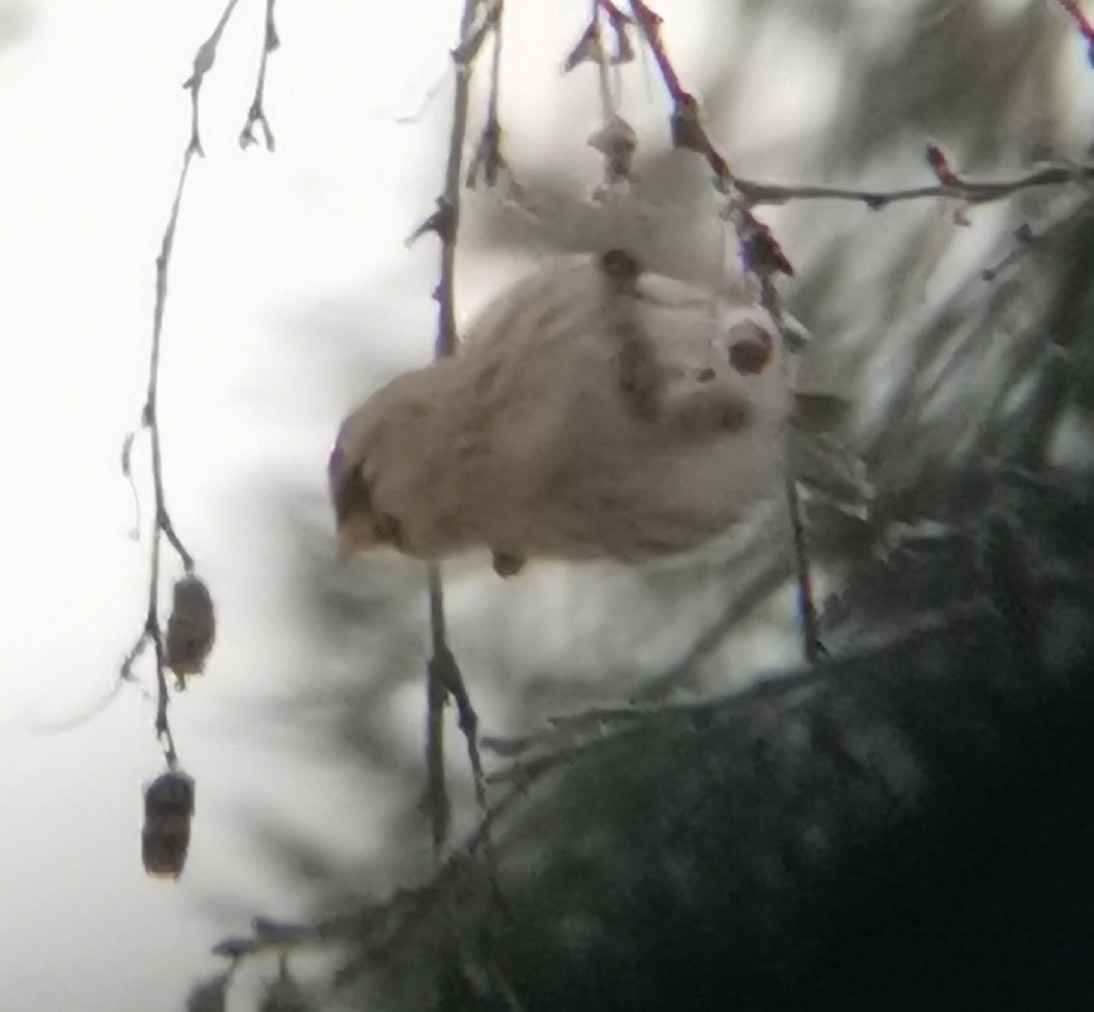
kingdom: Animalia
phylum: Chordata
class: Aves
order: Passeriformes
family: Fringillidae
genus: Acanthis
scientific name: Acanthis flammea
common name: Common redpoll
